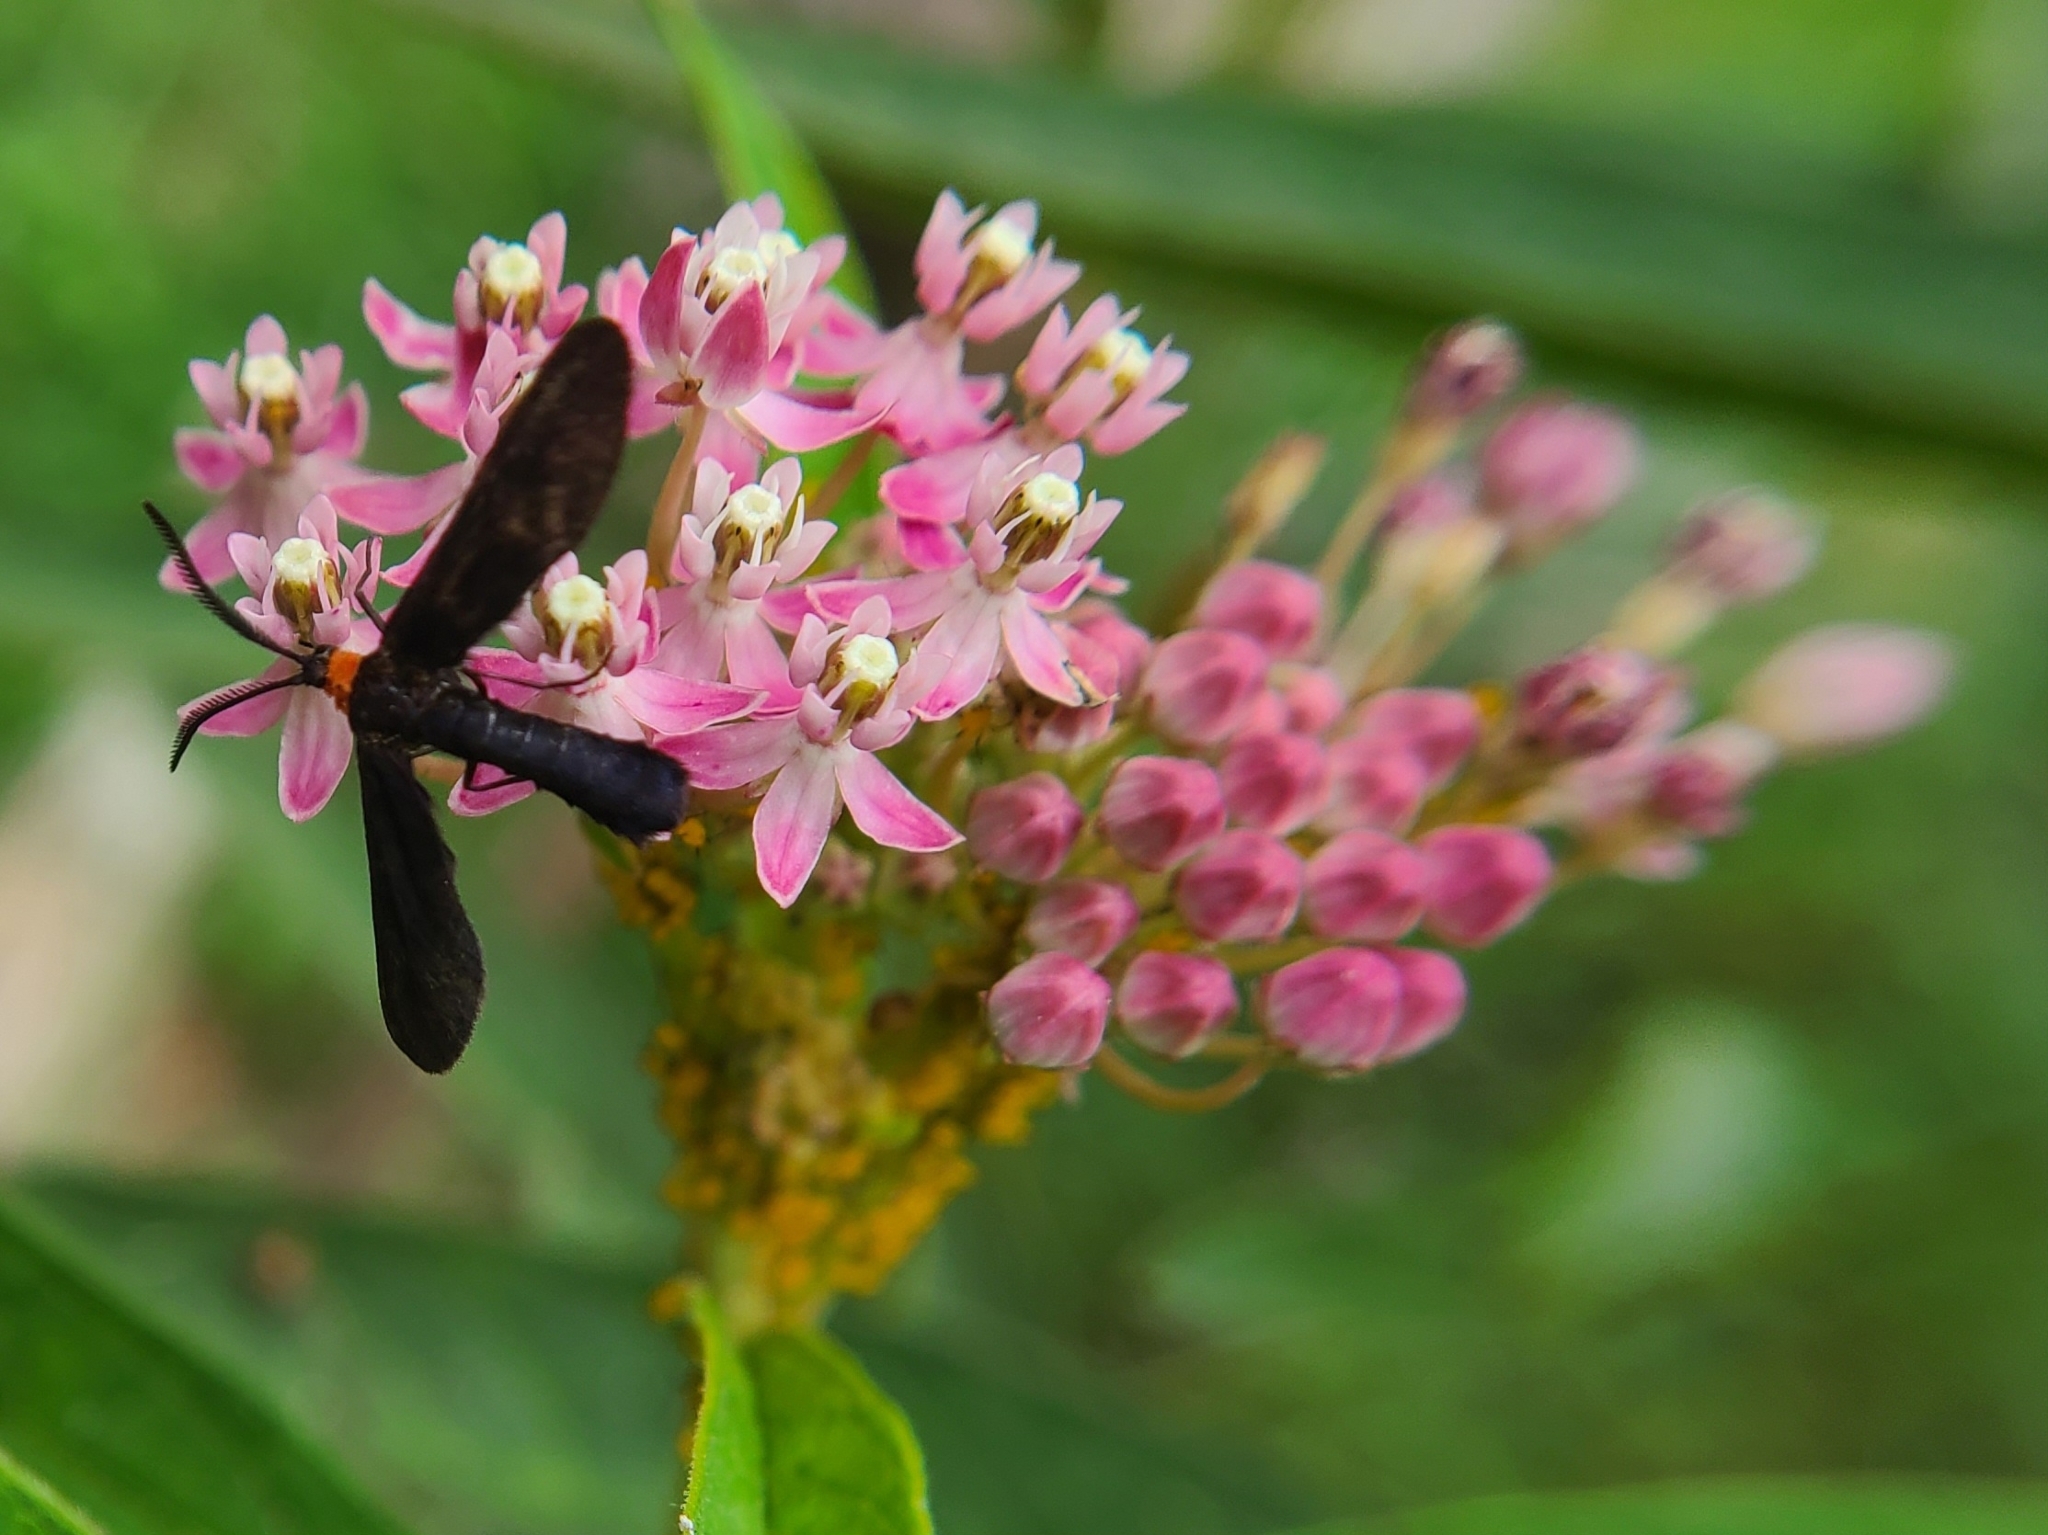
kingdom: Animalia
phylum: Arthropoda
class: Insecta
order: Lepidoptera
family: Zygaenidae
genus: Harrisina
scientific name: Harrisina americana
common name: Grapeleaf skeletonizer moth
